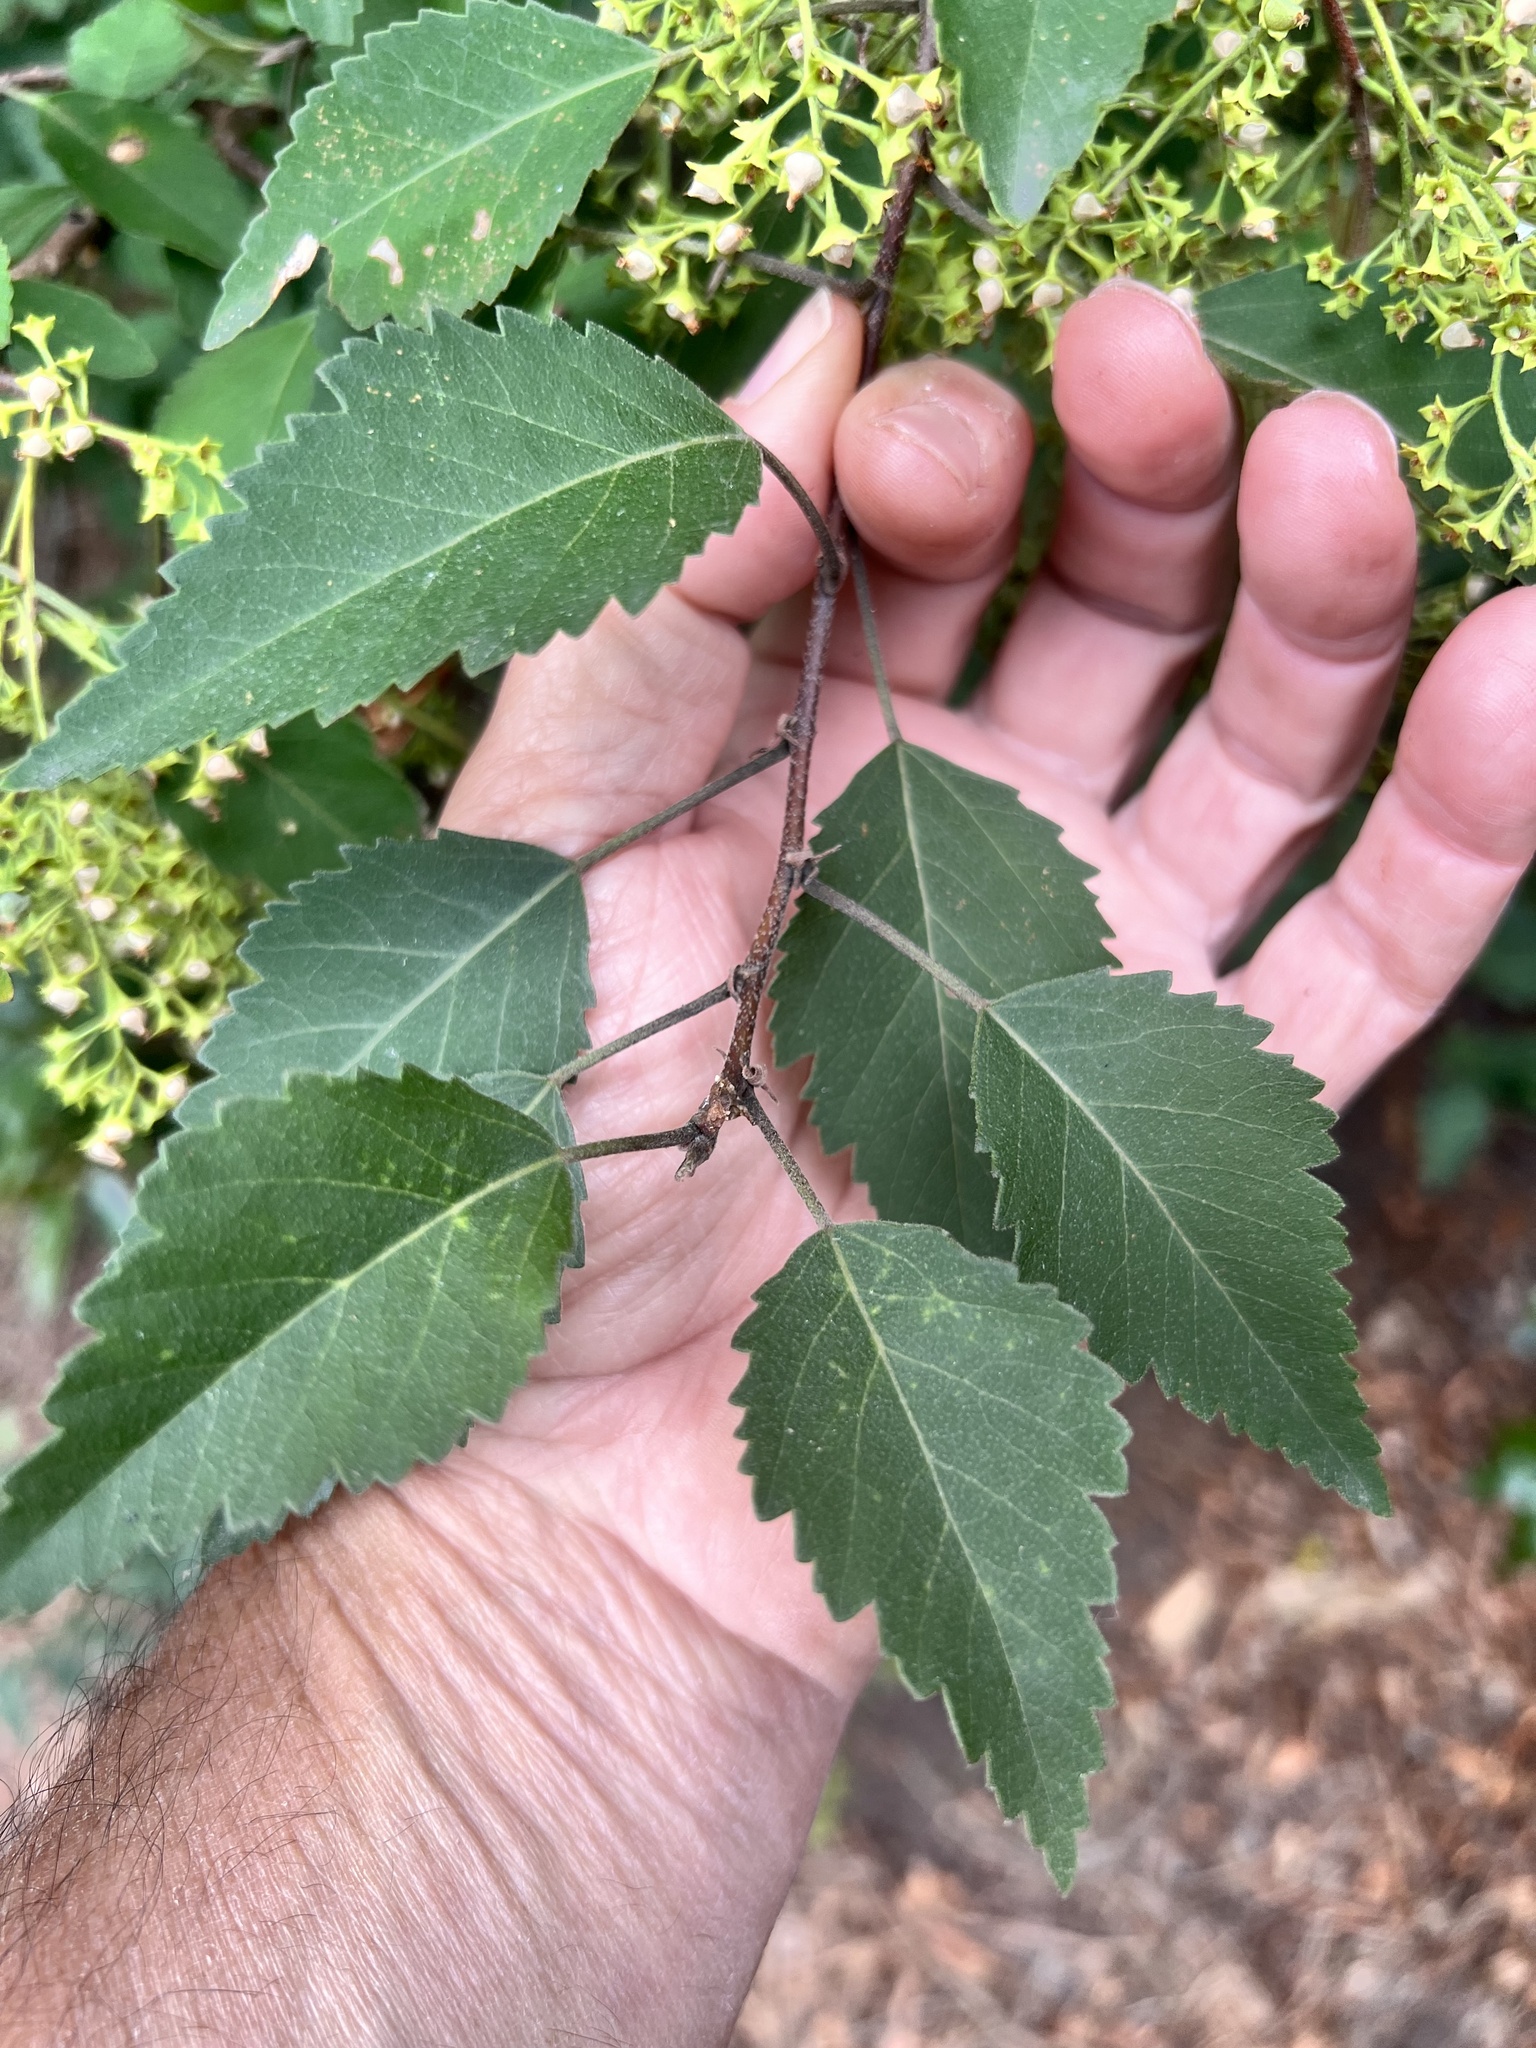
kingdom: Plantae
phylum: Tracheophyta
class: Magnoliopsida
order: Malvales
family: Malvaceae
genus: Plagianthus
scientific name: Plagianthus regius
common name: Manatu
